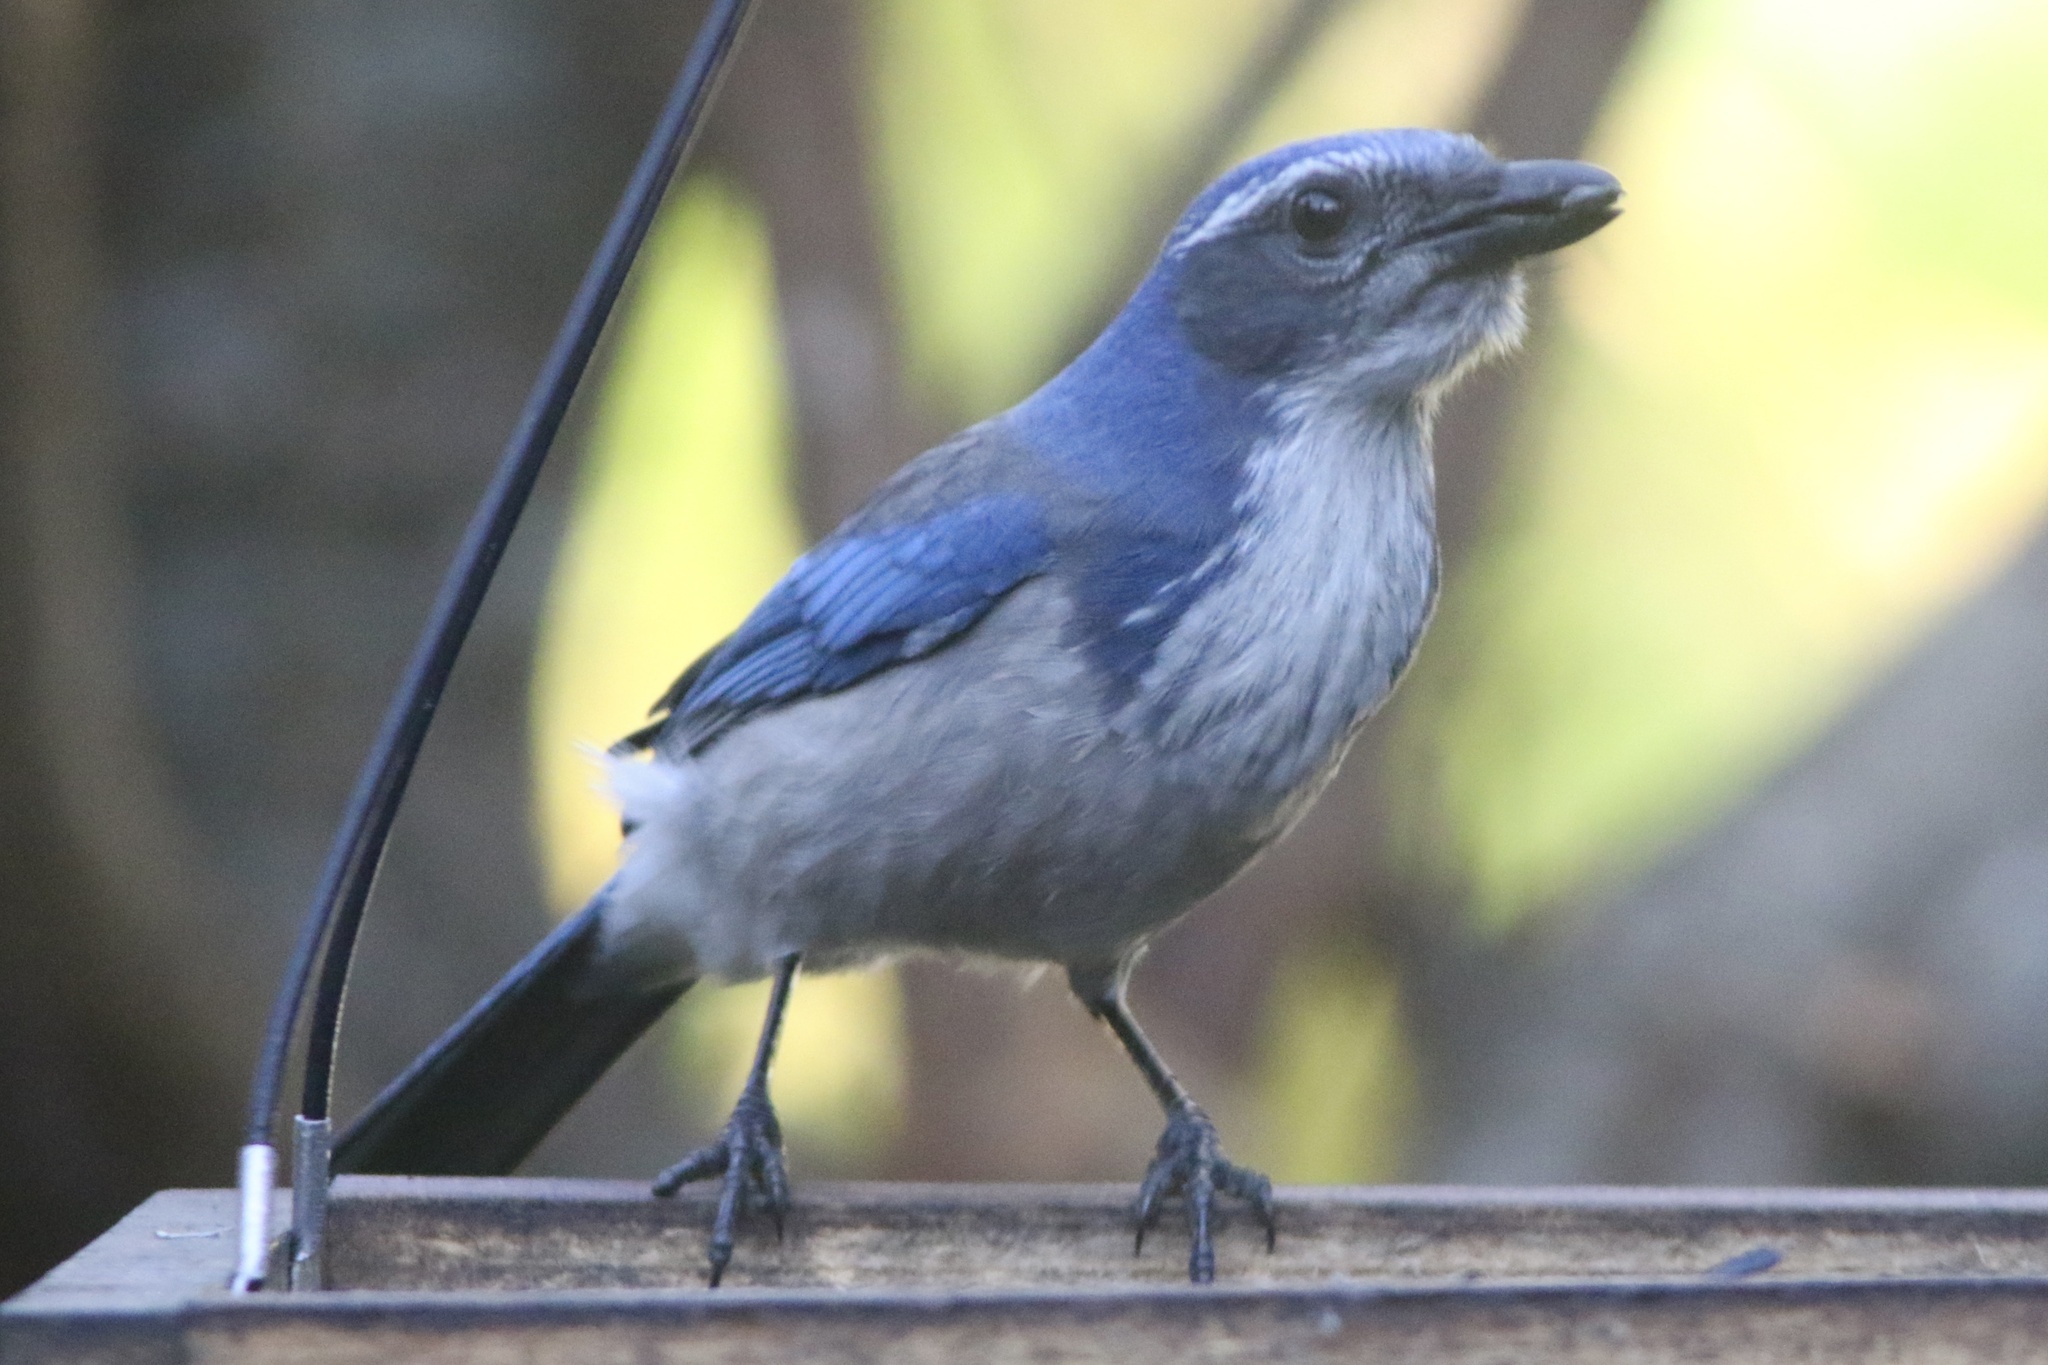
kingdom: Animalia
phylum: Chordata
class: Aves
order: Passeriformes
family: Corvidae
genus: Aphelocoma
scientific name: Aphelocoma californica
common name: California scrub-jay
